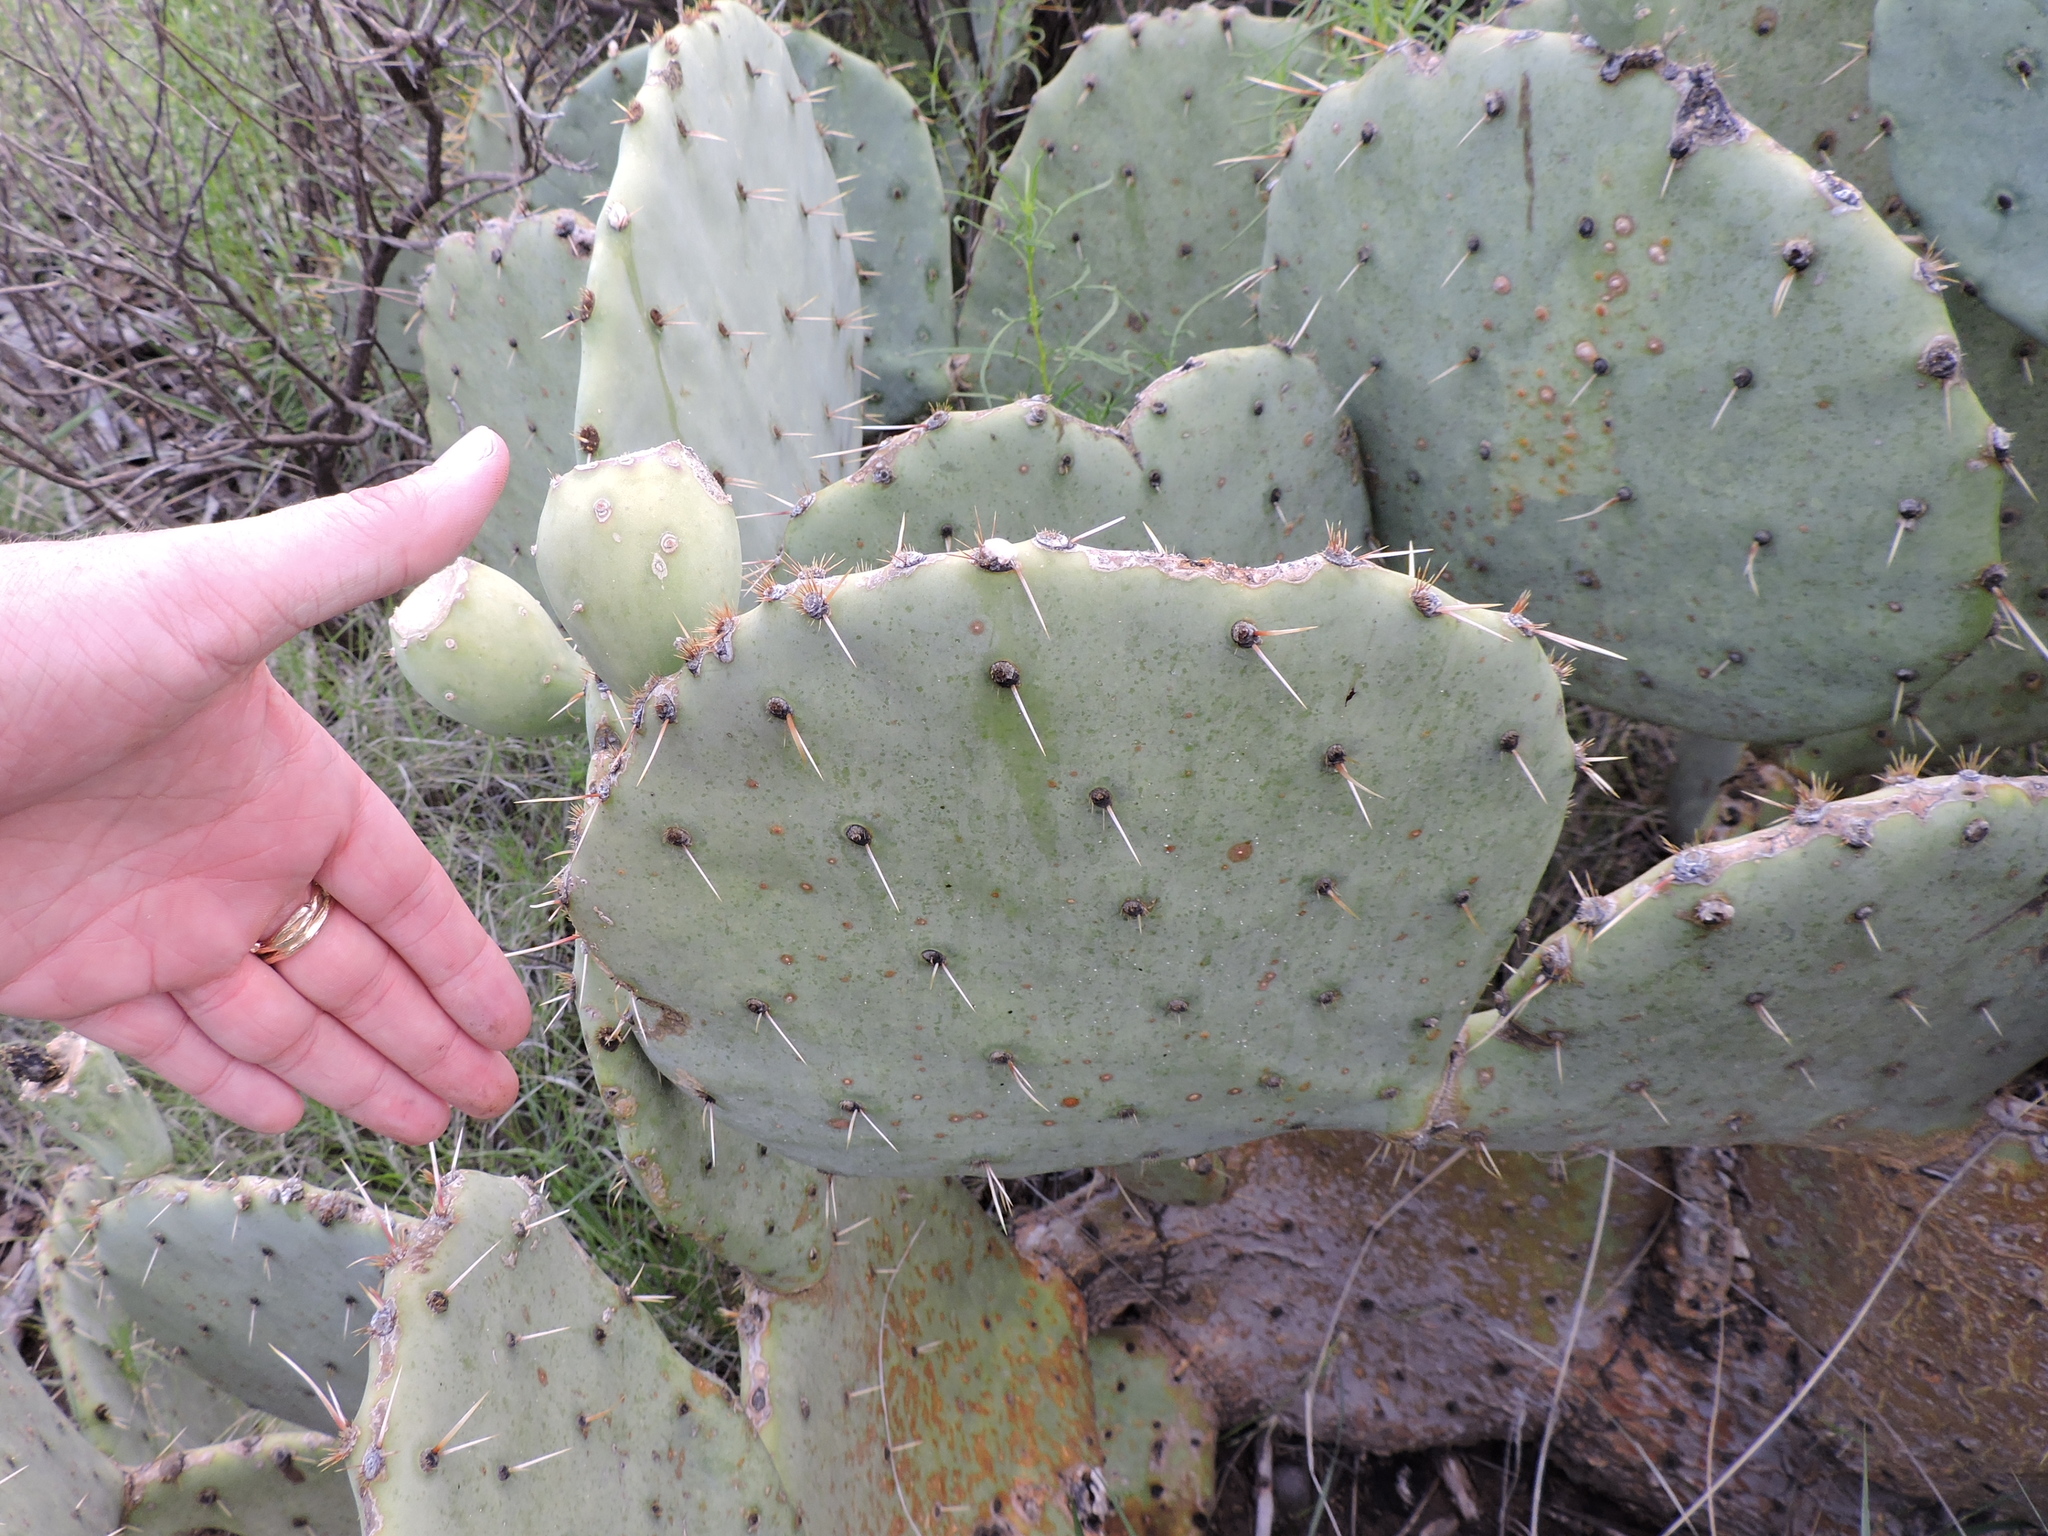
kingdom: Plantae
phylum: Tracheophyta
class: Magnoliopsida
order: Caryophyllales
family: Cactaceae
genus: Opuntia
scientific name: Opuntia orbiculata
